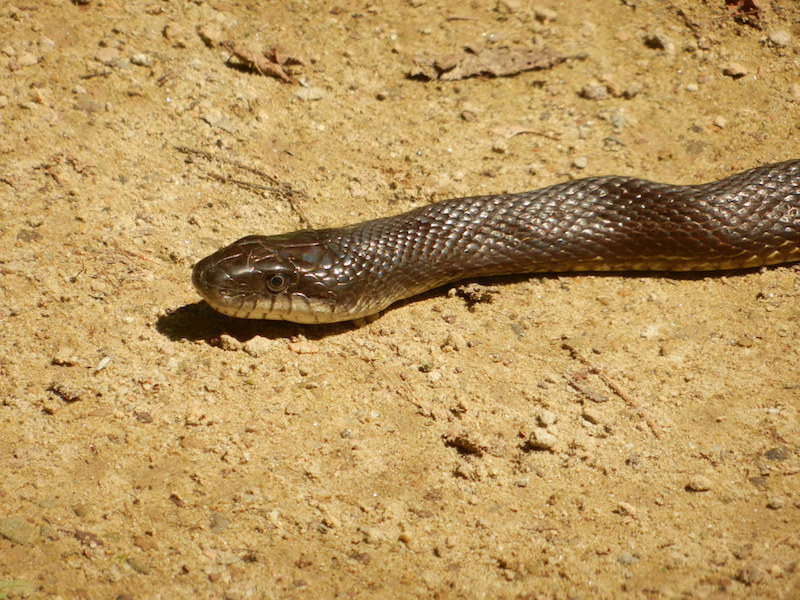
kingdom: Animalia
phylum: Chordata
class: Squamata
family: Colubridae
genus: Pantherophis
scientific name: Pantherophis
